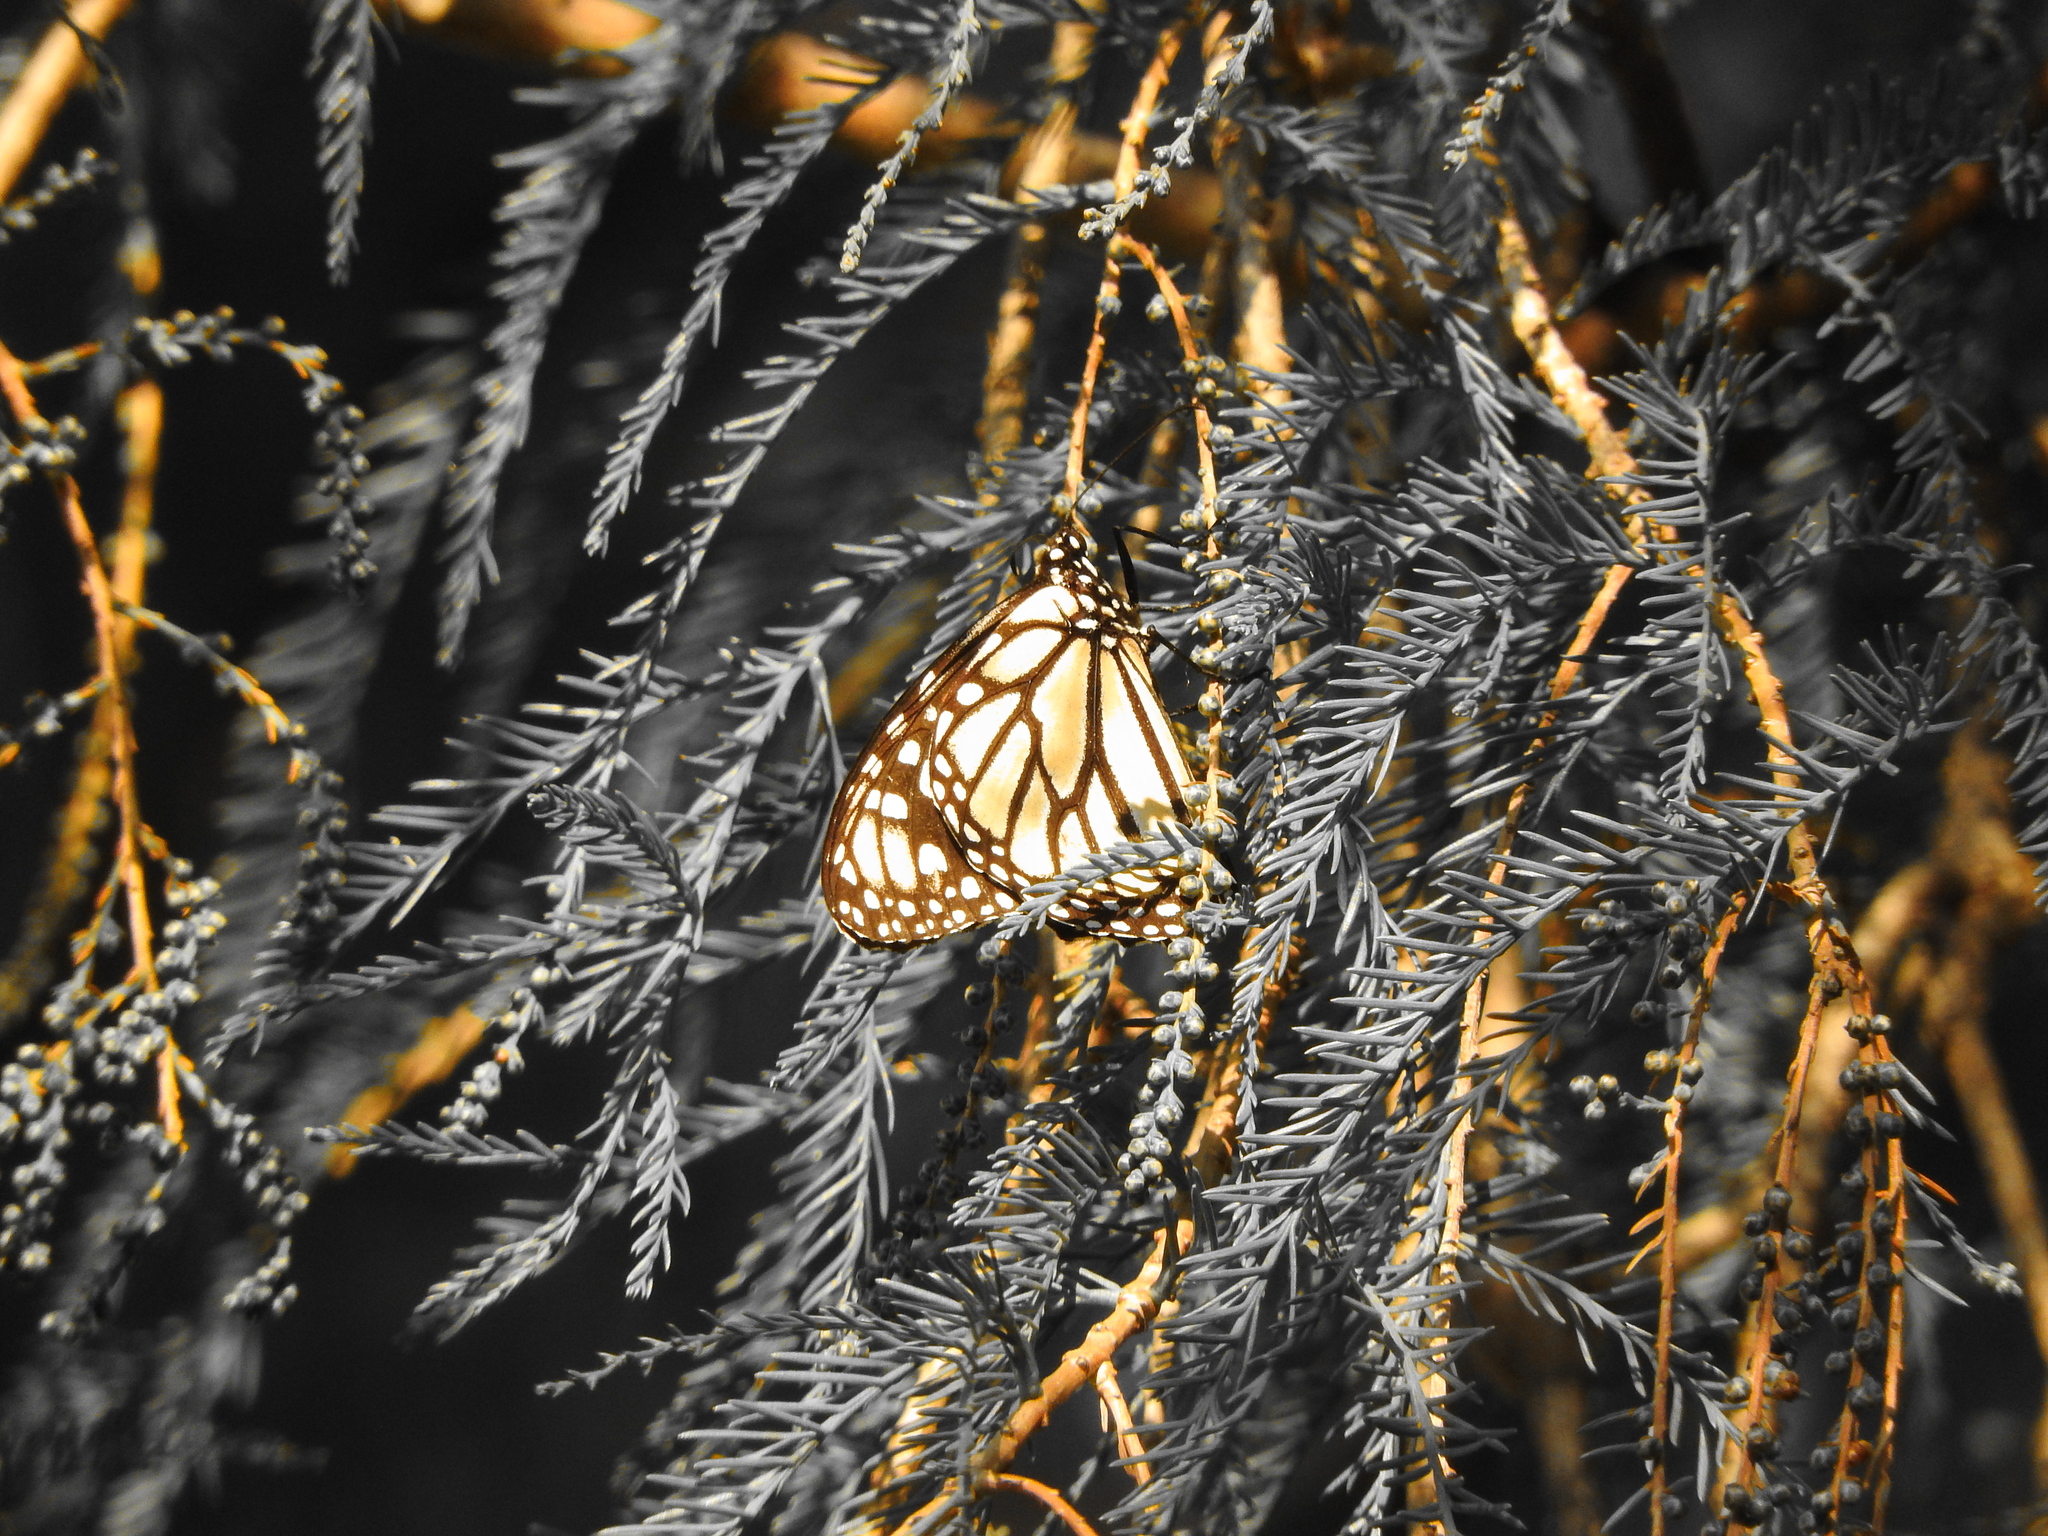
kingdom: Animalia
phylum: Arthropoda
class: Insecta
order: Lepidoptera
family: Nymphalidae
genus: Danaus
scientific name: Danaus plexippus
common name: Monarch
